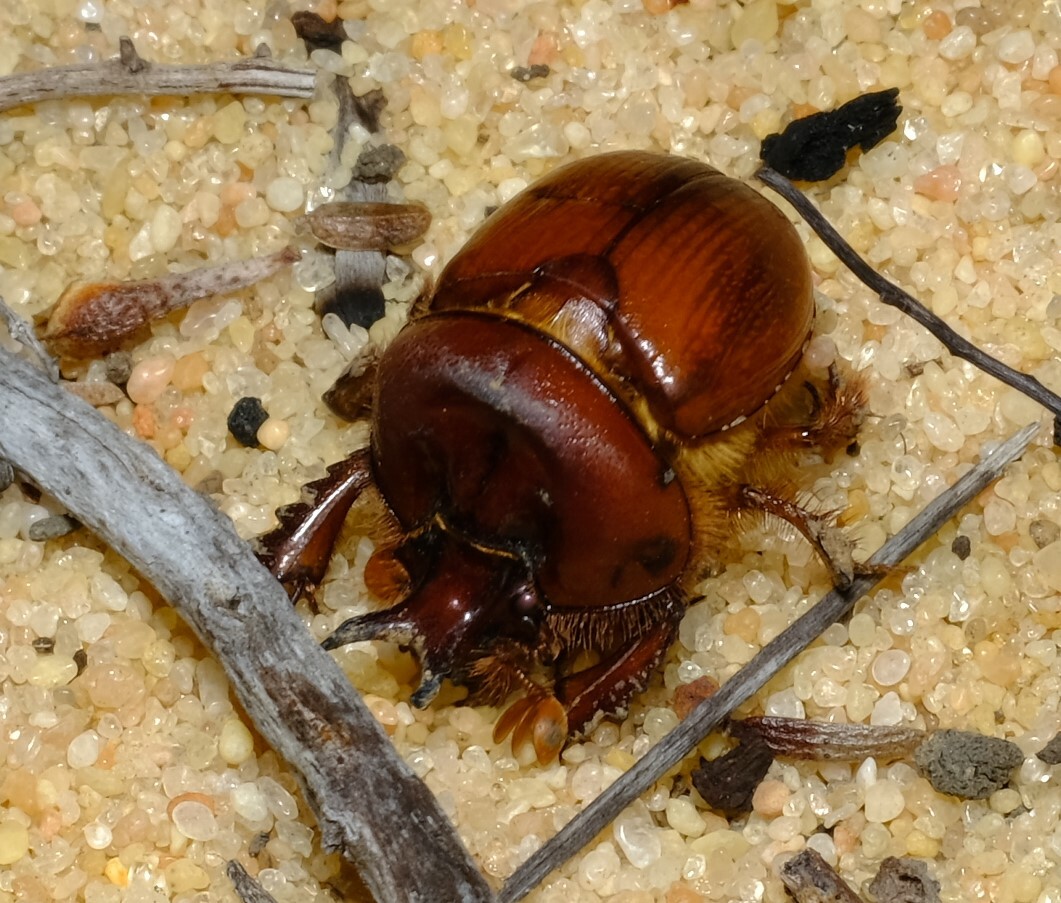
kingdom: Animalia
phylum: Arthropoda
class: Insecta
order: Coleoptera
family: Geotrupidae
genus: Bolborhachium
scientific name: Bolborhachium tricavicolle
